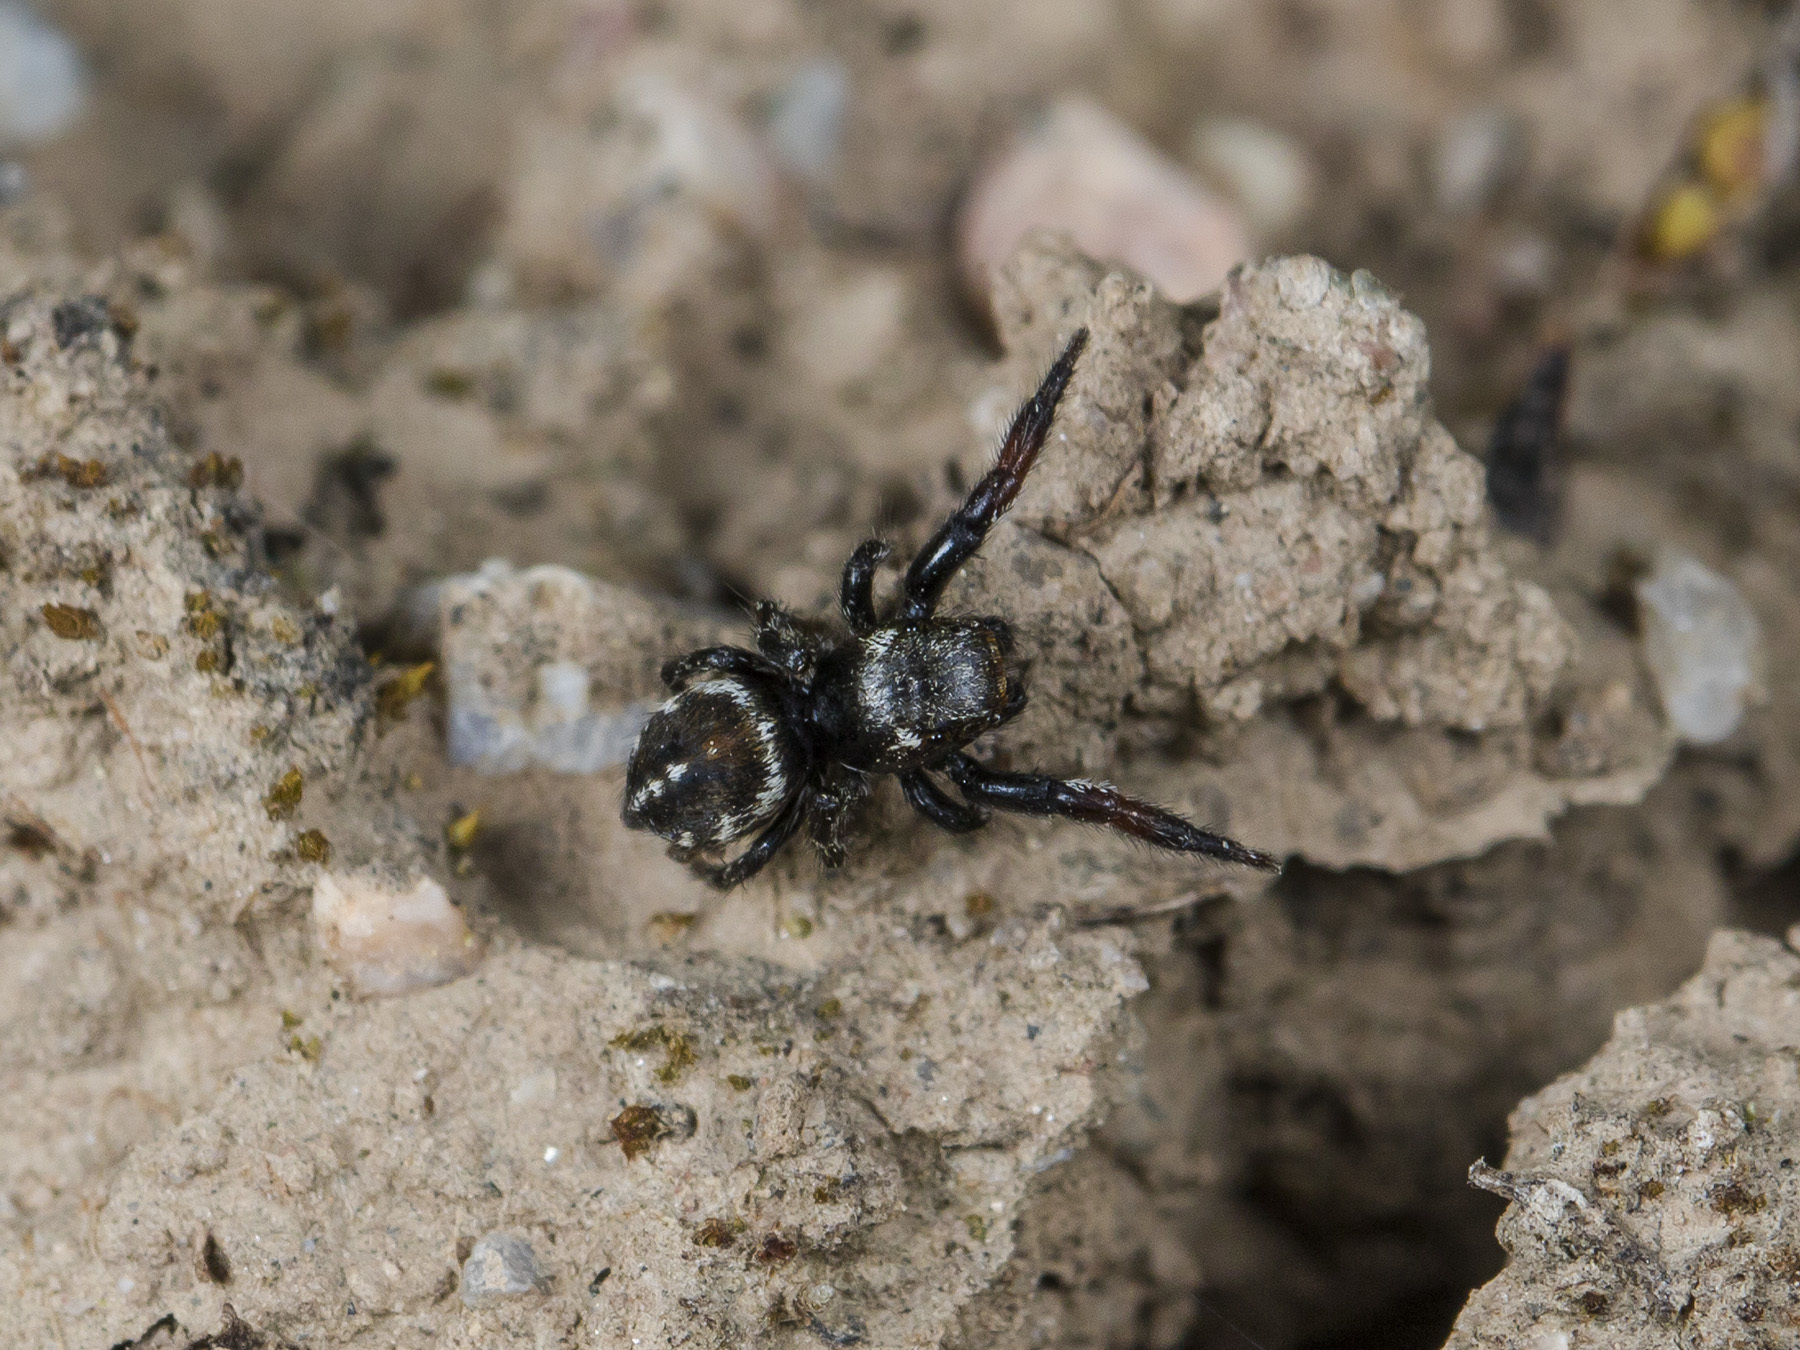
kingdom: Animalia
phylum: Arthropoda
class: Arachnida
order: Araneae
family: Salticidae
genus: Pellenes
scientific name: Pellenes allegrii
